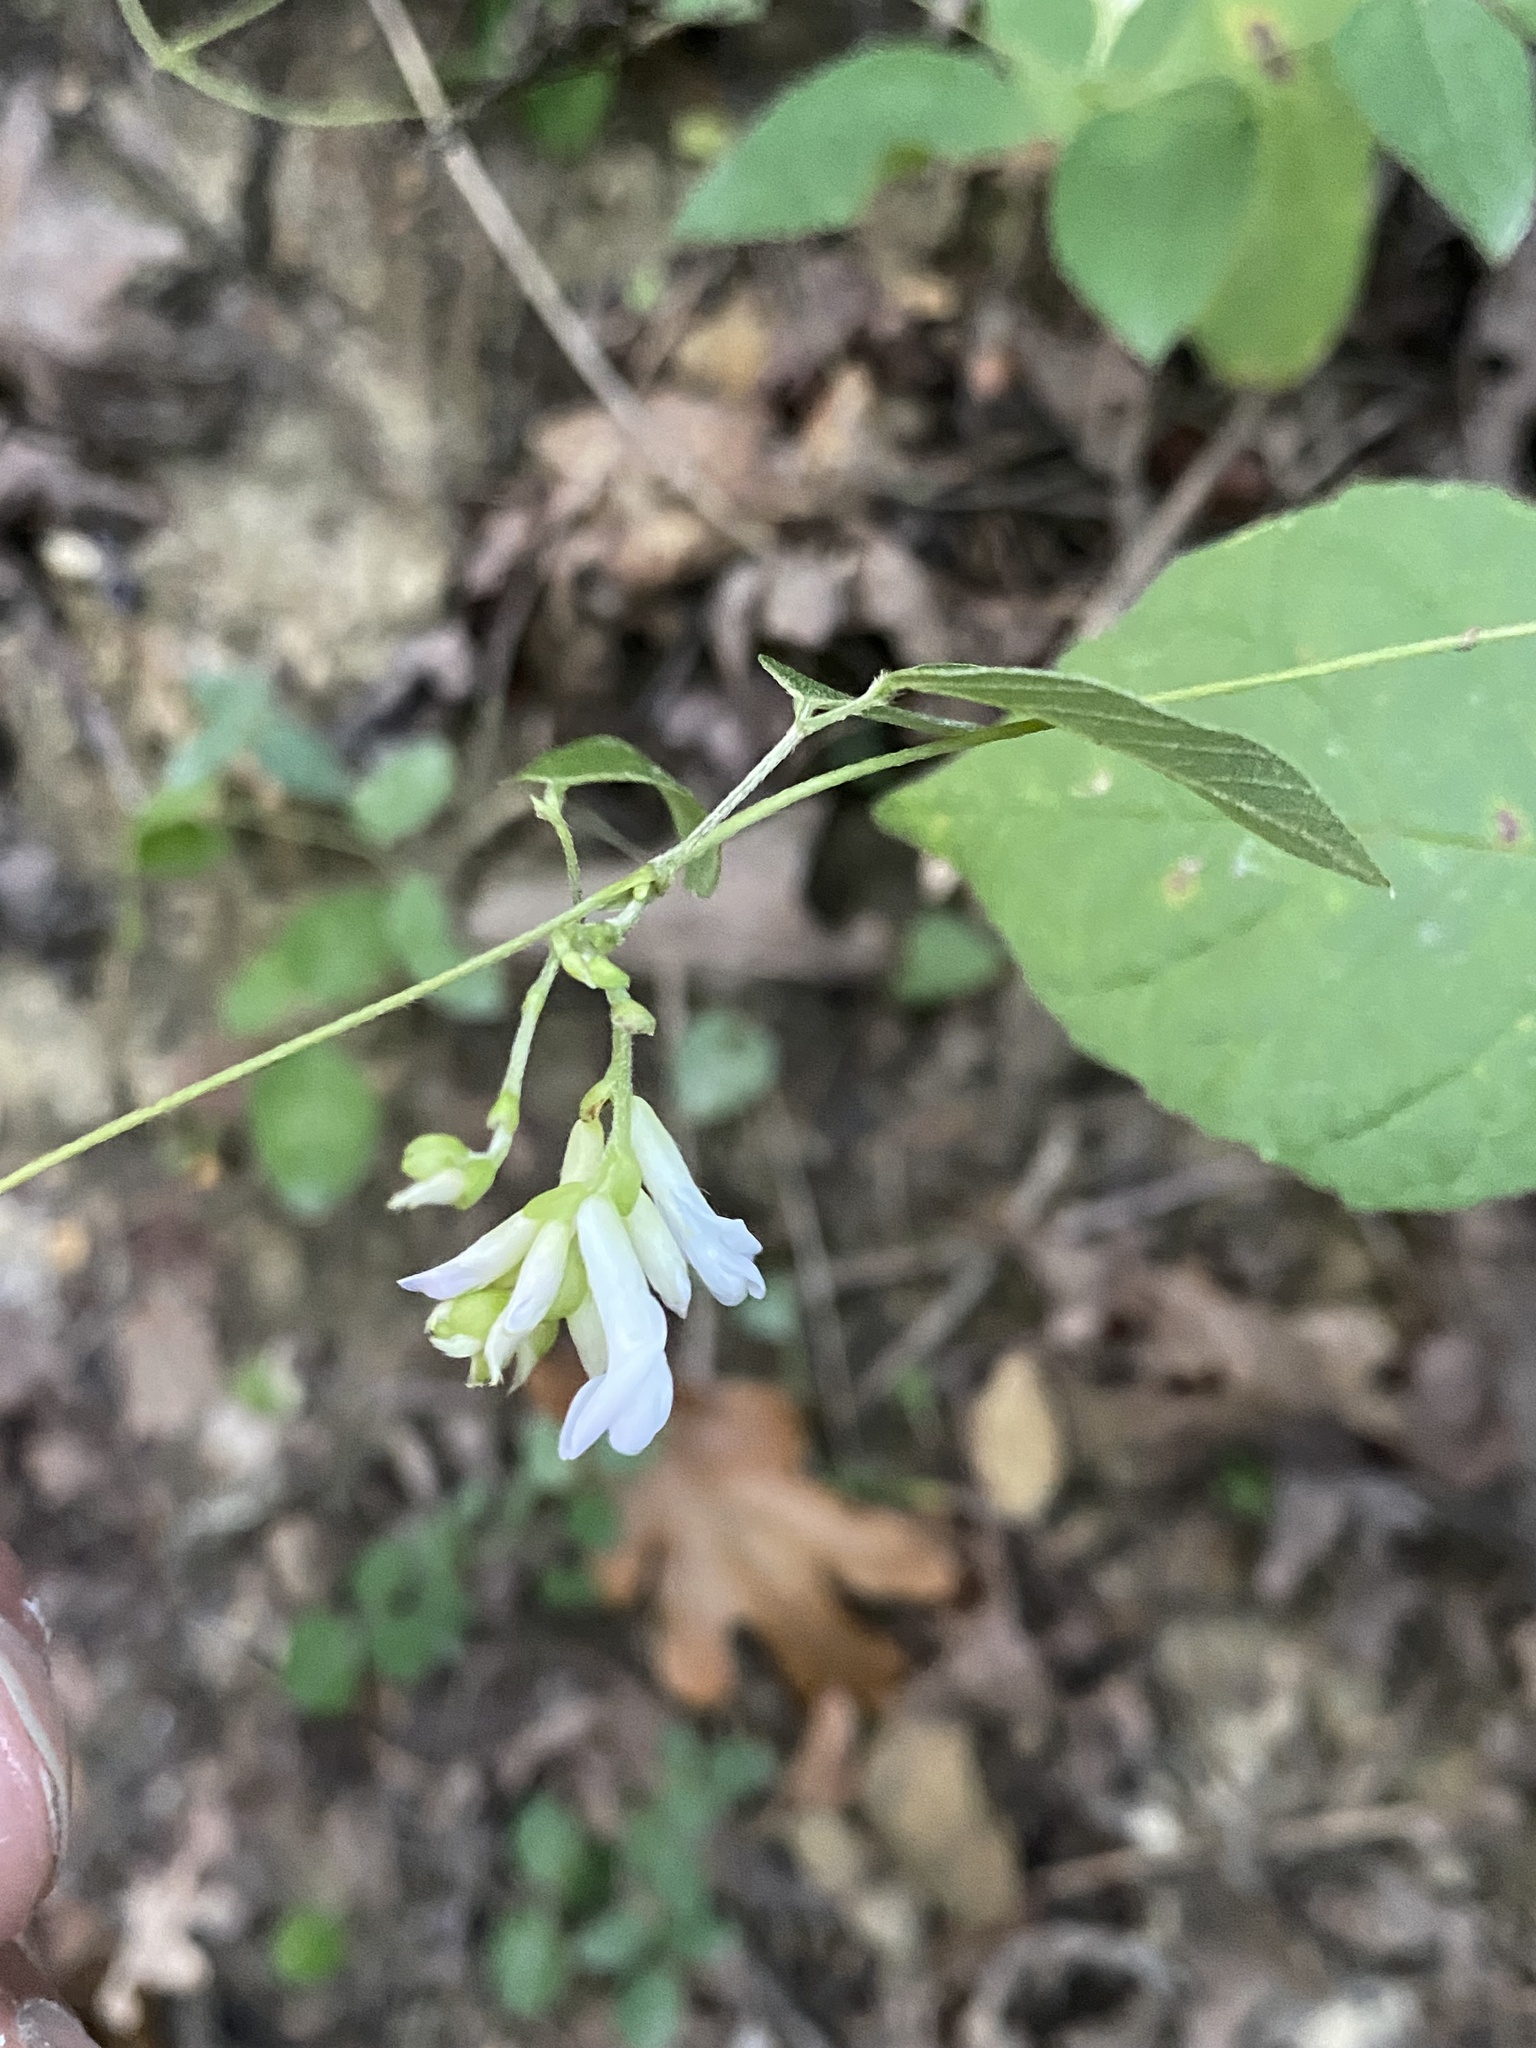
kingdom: Plantae
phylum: Tracheophyta
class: Magnoliopsida
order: Fabales
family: Fabaceae
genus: Amphicarpaea
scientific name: Amphicarpaea bracteata
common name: American hog peanut
